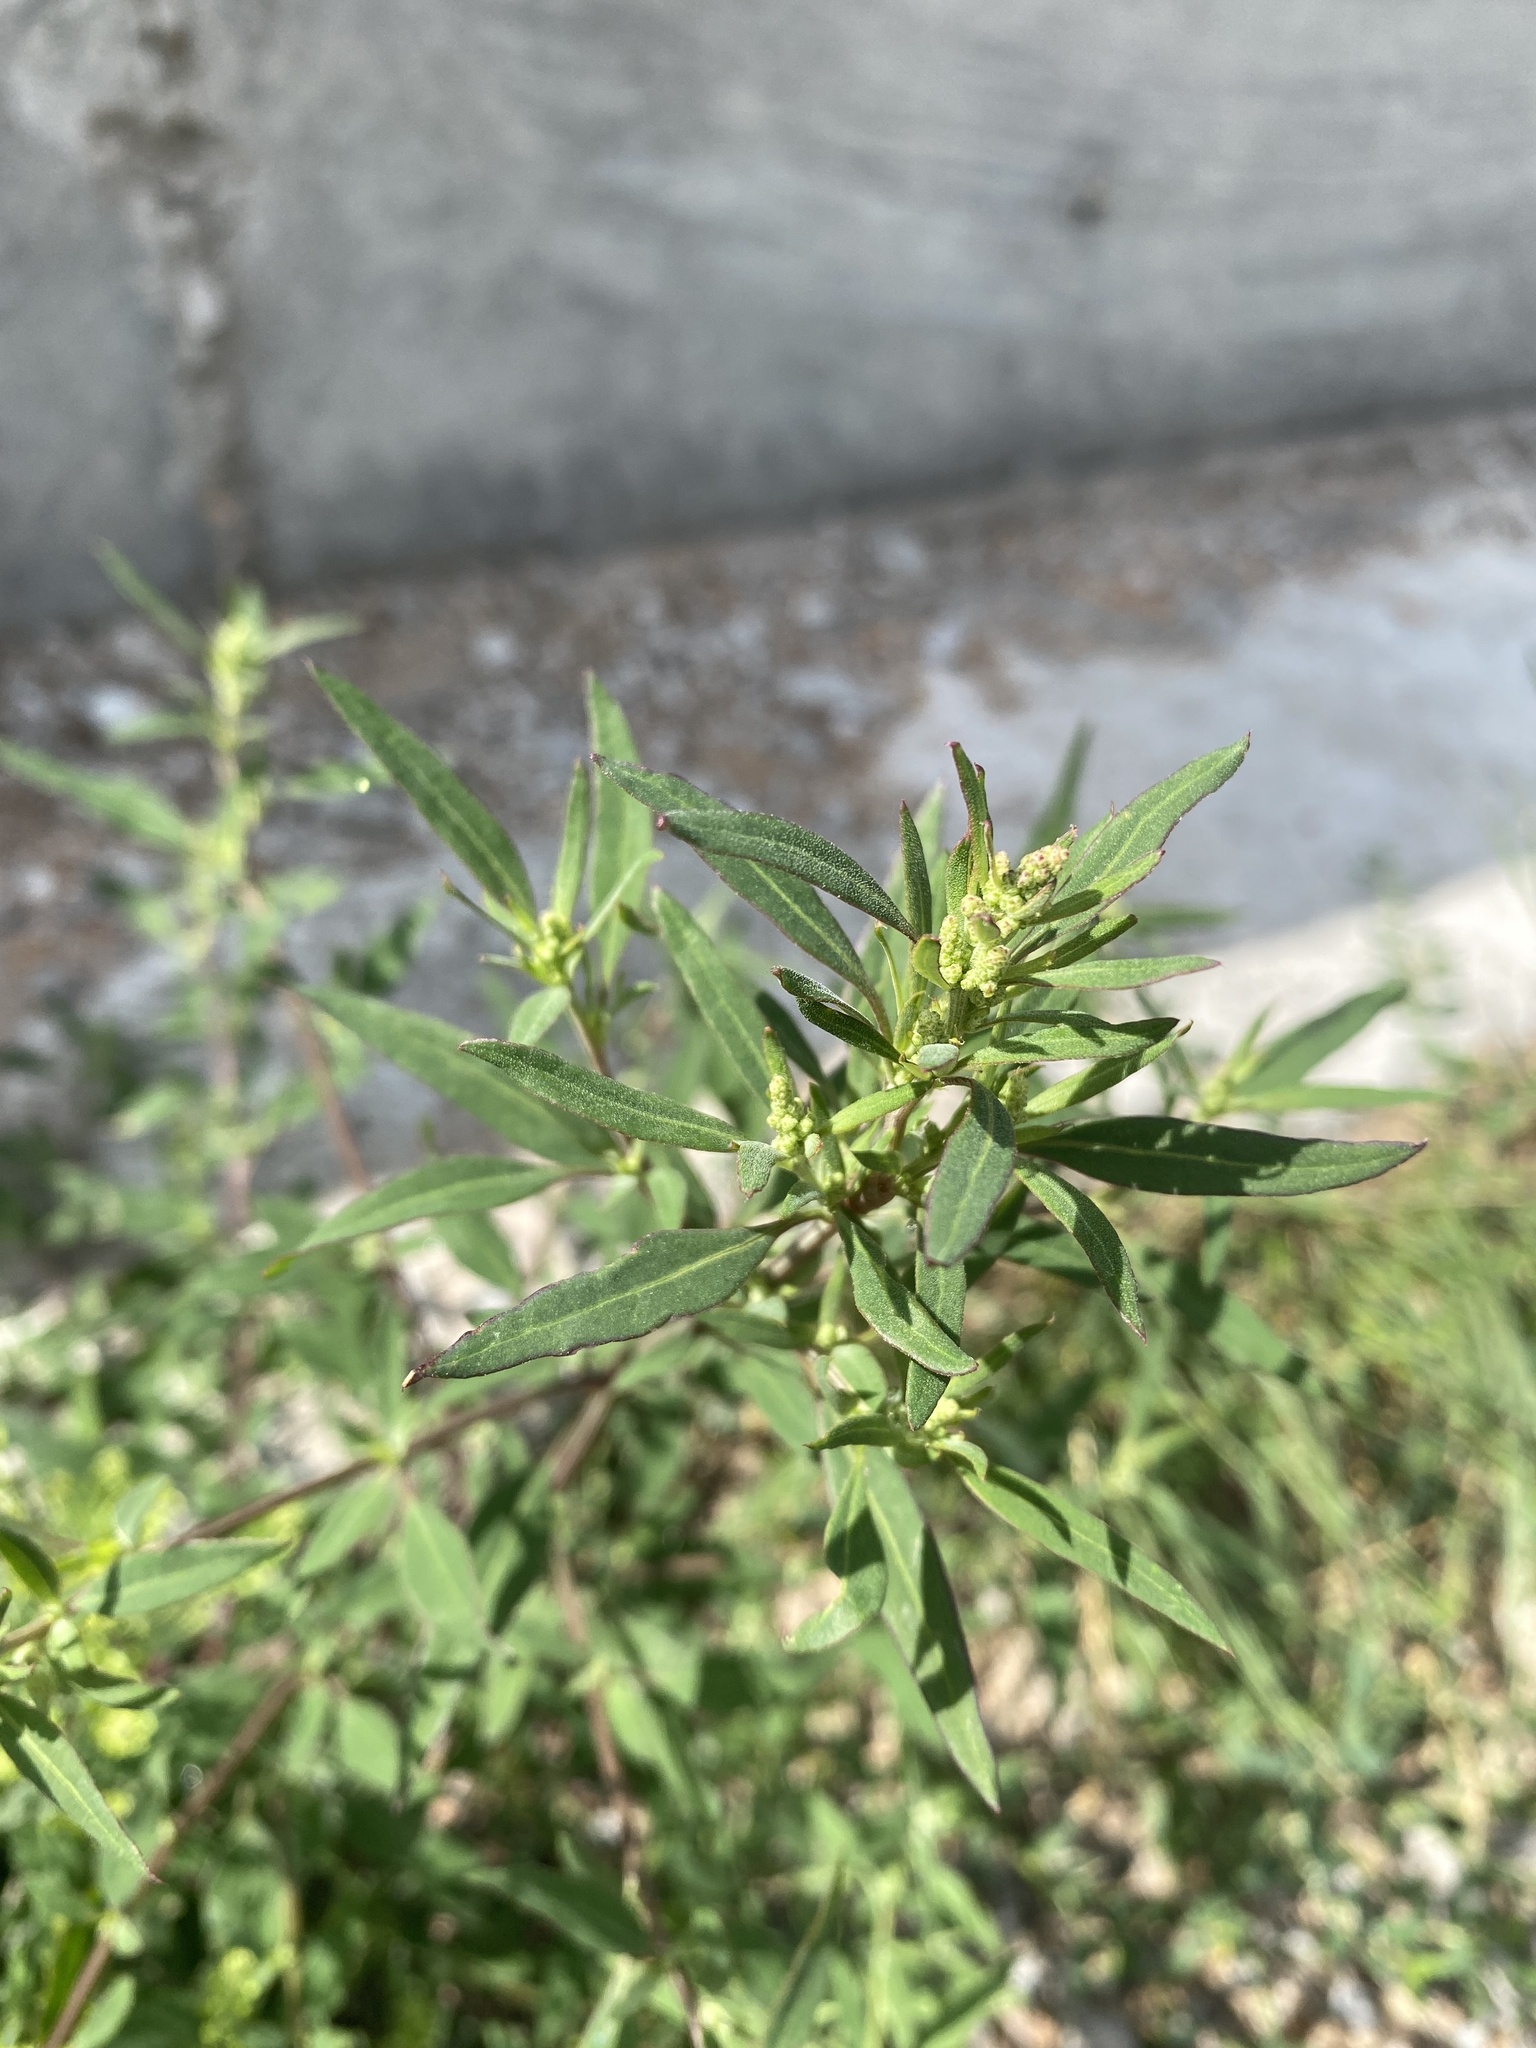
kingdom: Plantae
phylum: Tracheophyta
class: Magnoliopsida
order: Caryophyllales
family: Amaranthaceae
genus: Chenopodium
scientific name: Chenopodium betaceum
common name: Striped goosefoot
